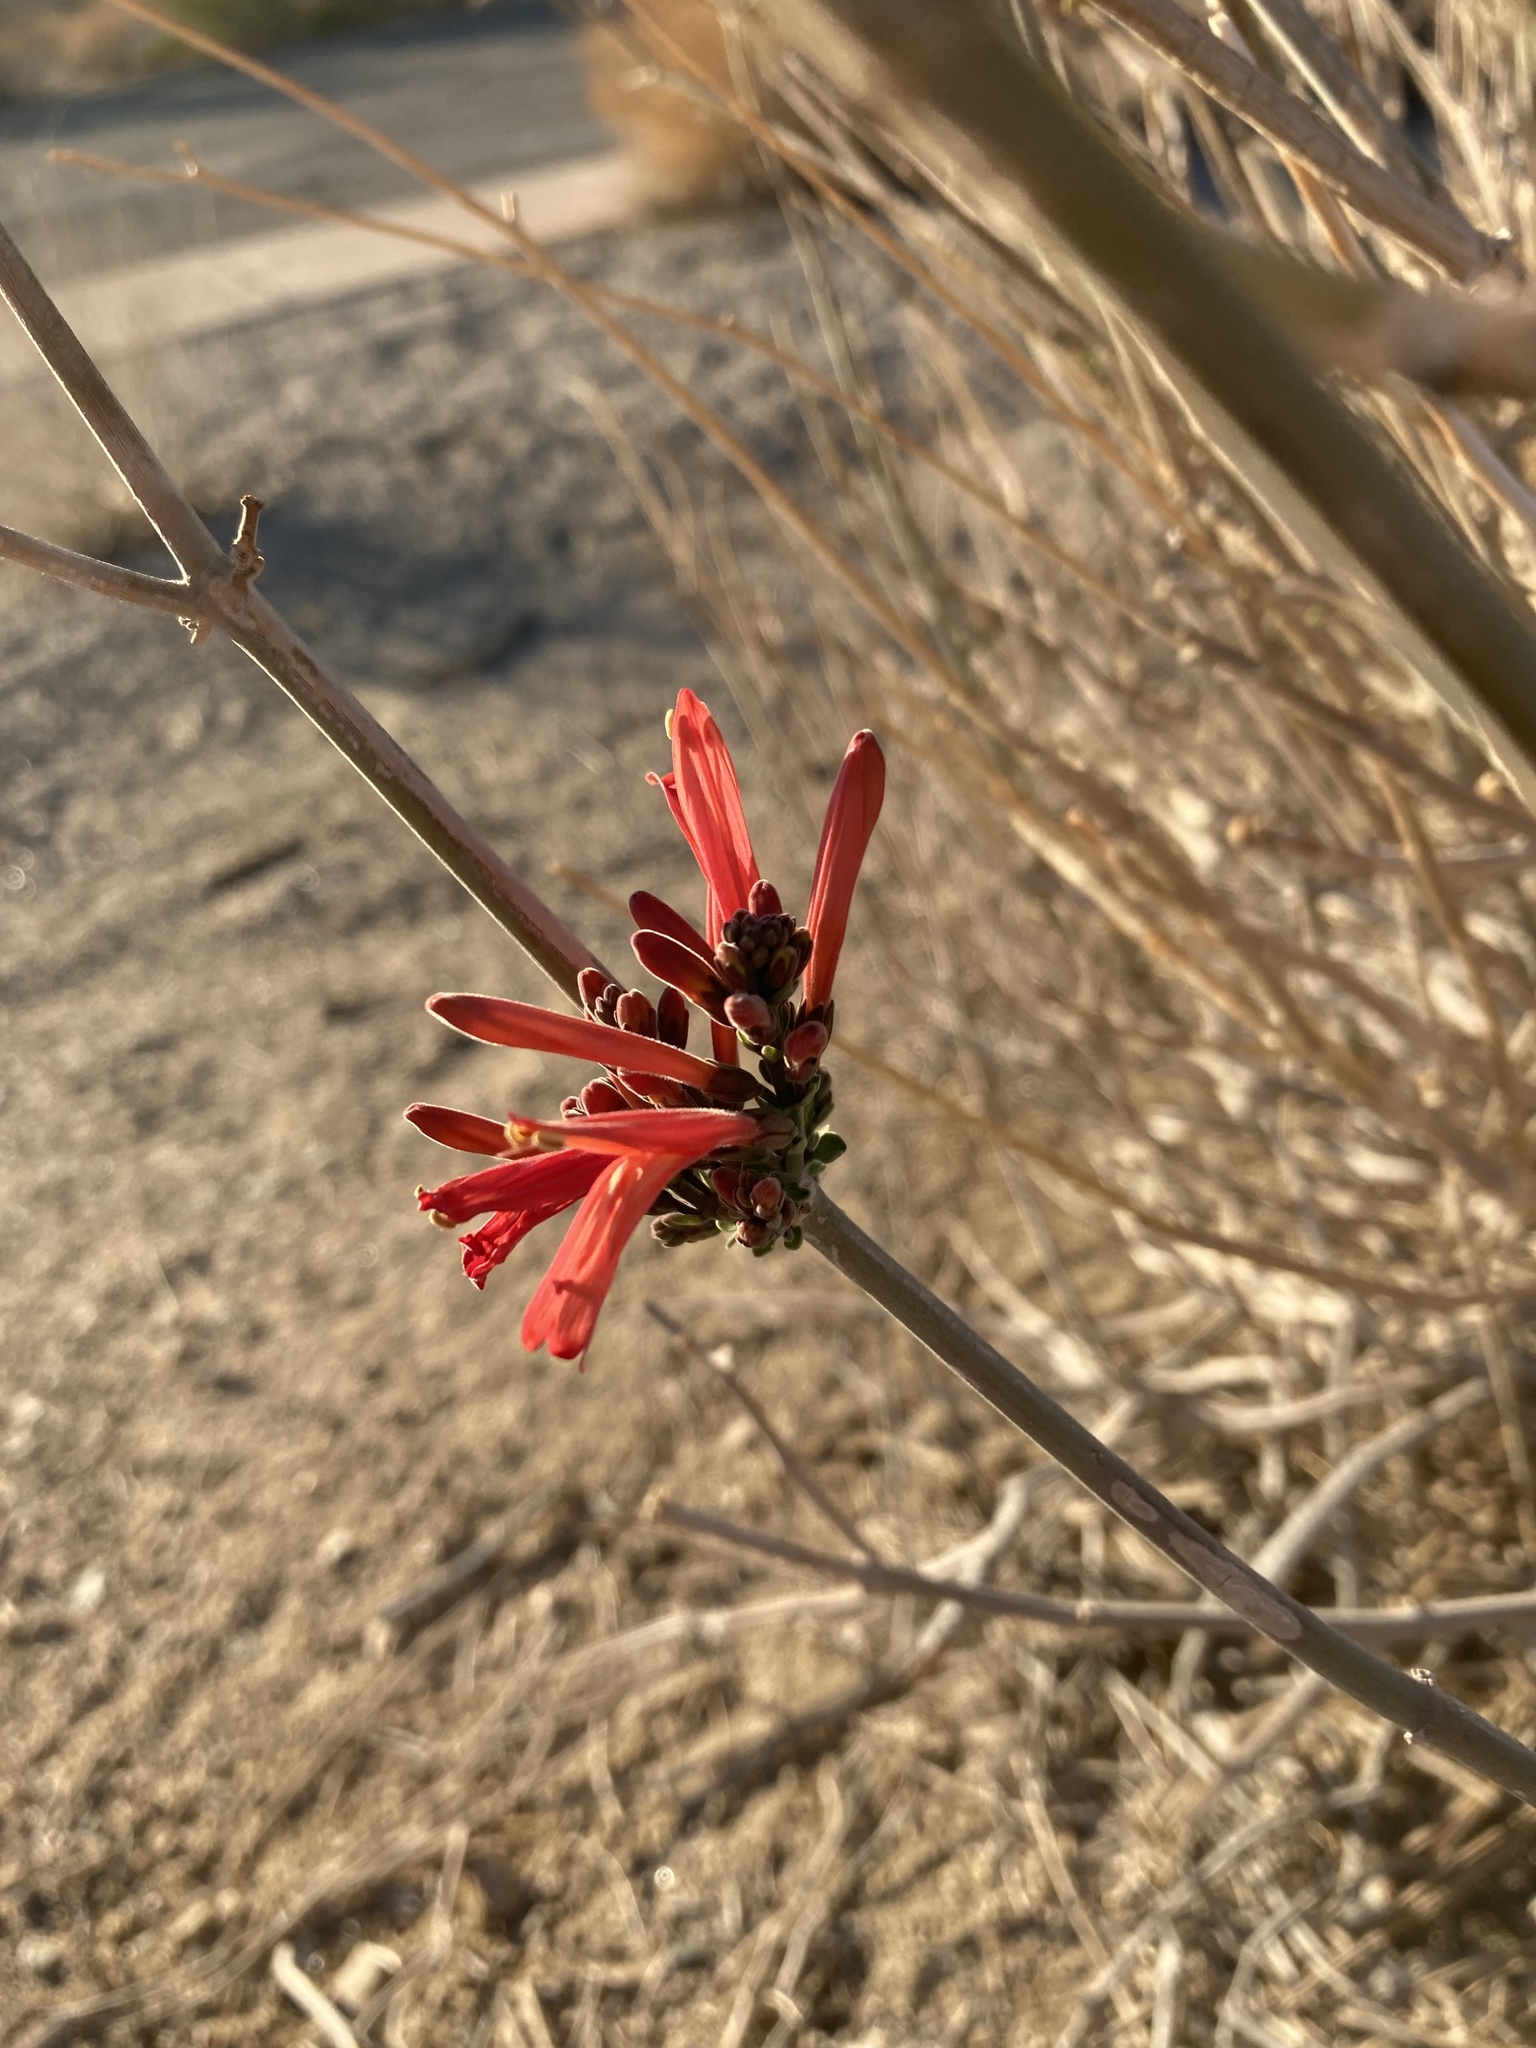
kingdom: Plantae
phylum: Tracheophyta
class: Magnoliopsida
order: Lamiales
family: Acanthaceae
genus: Justicia
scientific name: Justicia californica
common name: Chuparosa-honeysuckle
